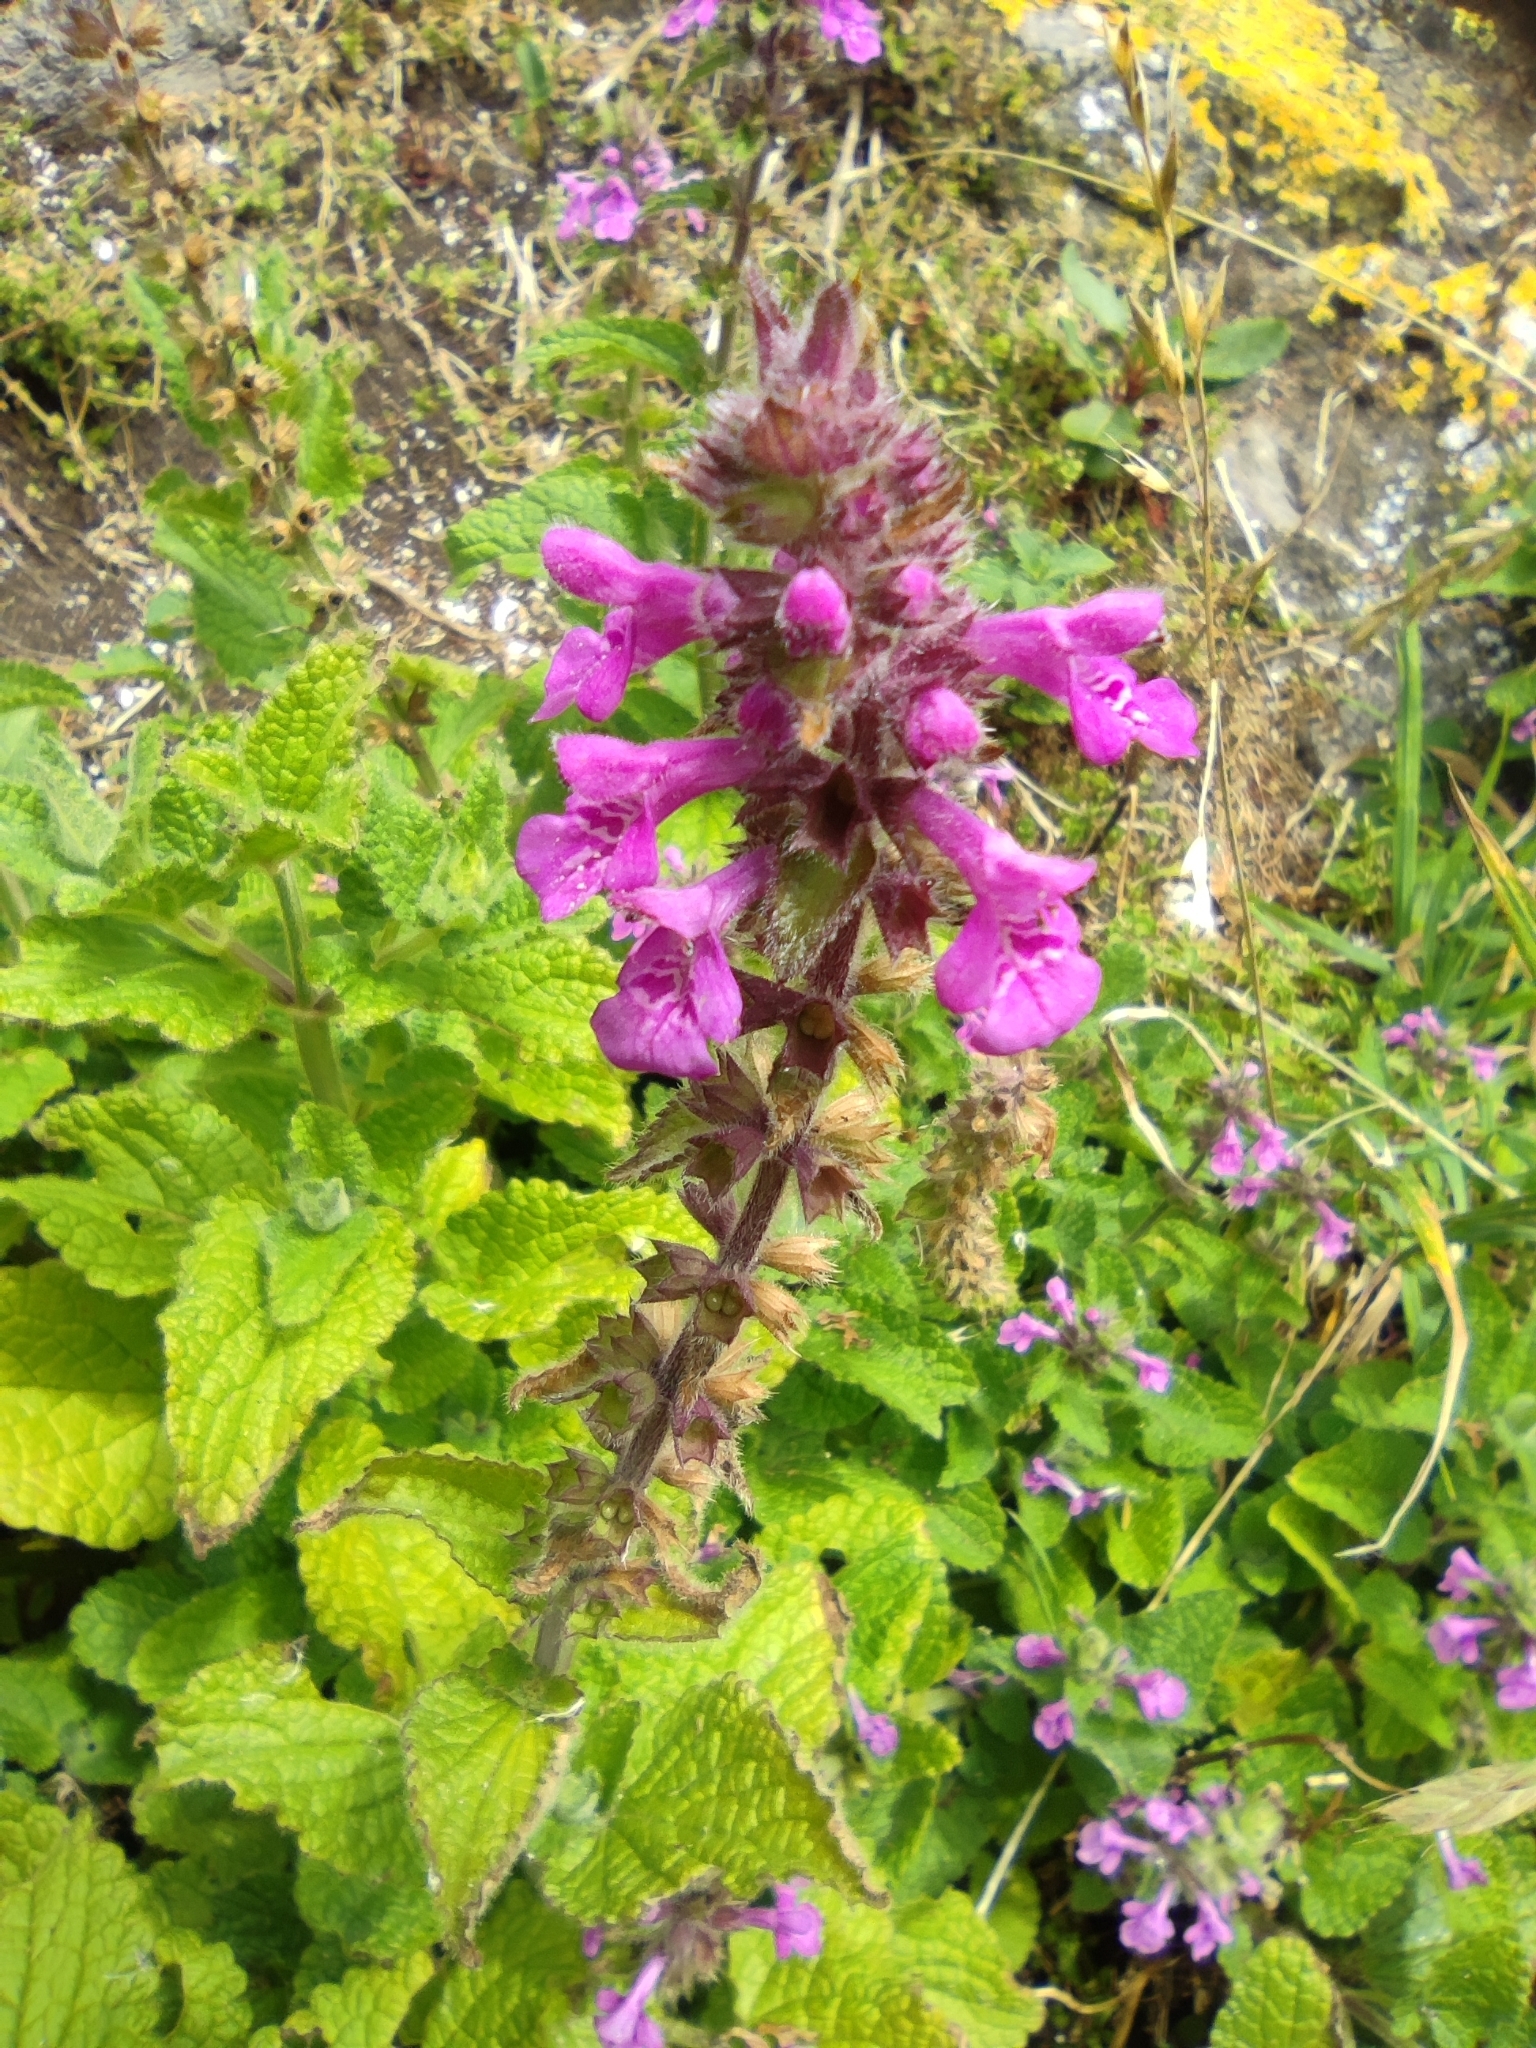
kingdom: Plantae
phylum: Tracheophyta
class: Magnoliopsida
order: Lamiales
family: Lamiaceae
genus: Stachys
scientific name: Stachys grandidentata
